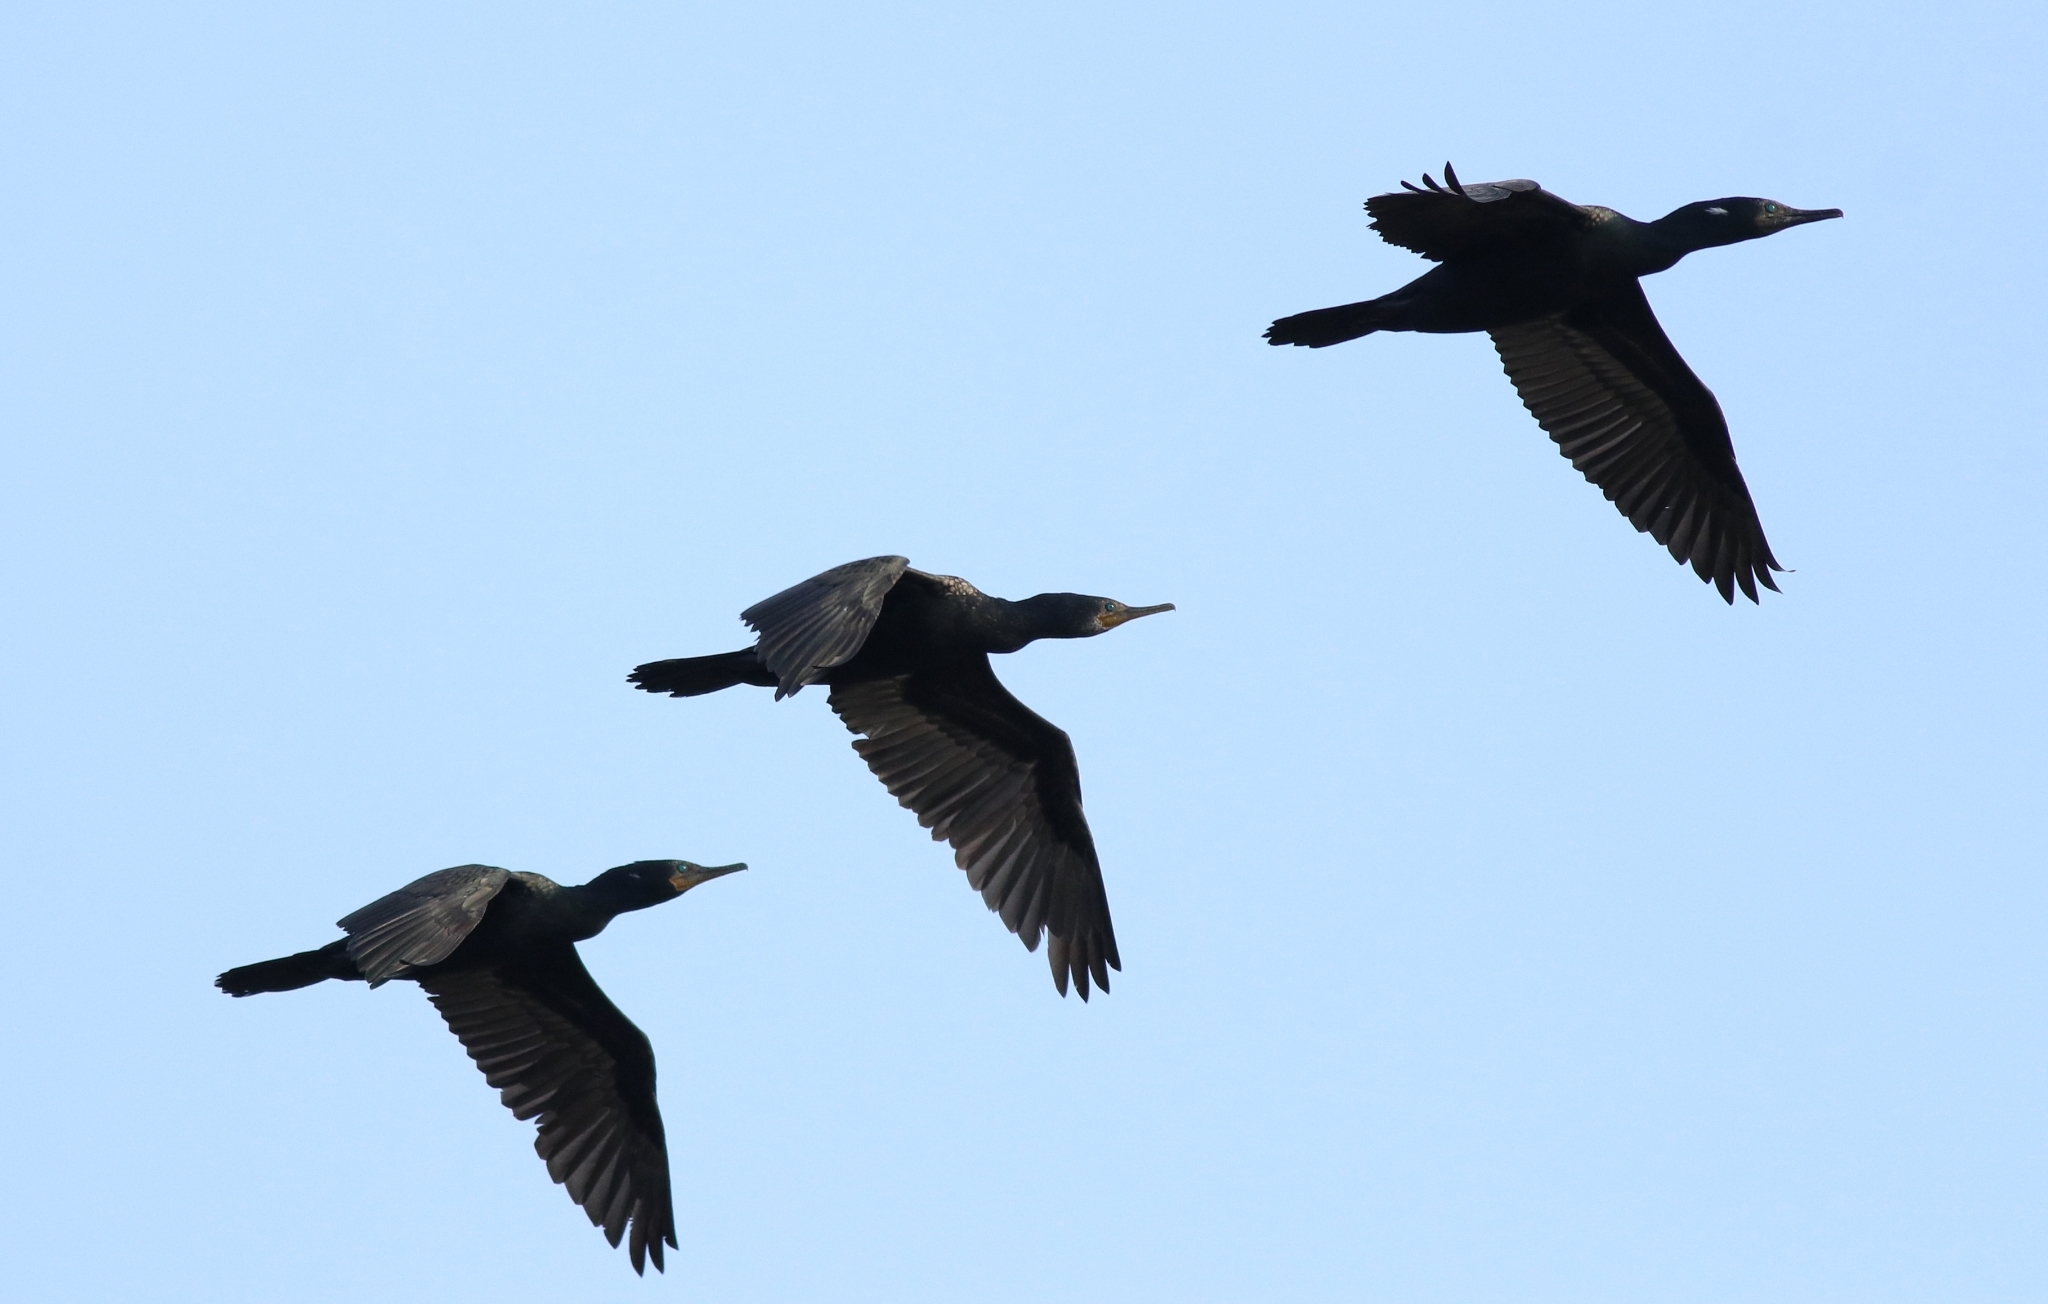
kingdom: Animalia
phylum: Chordata
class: Aves
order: Suliformes
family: Phalacrocoracidae
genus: Phalacrocorax
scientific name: Phalacrocorax fuscicollis
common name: Indian cormorant
